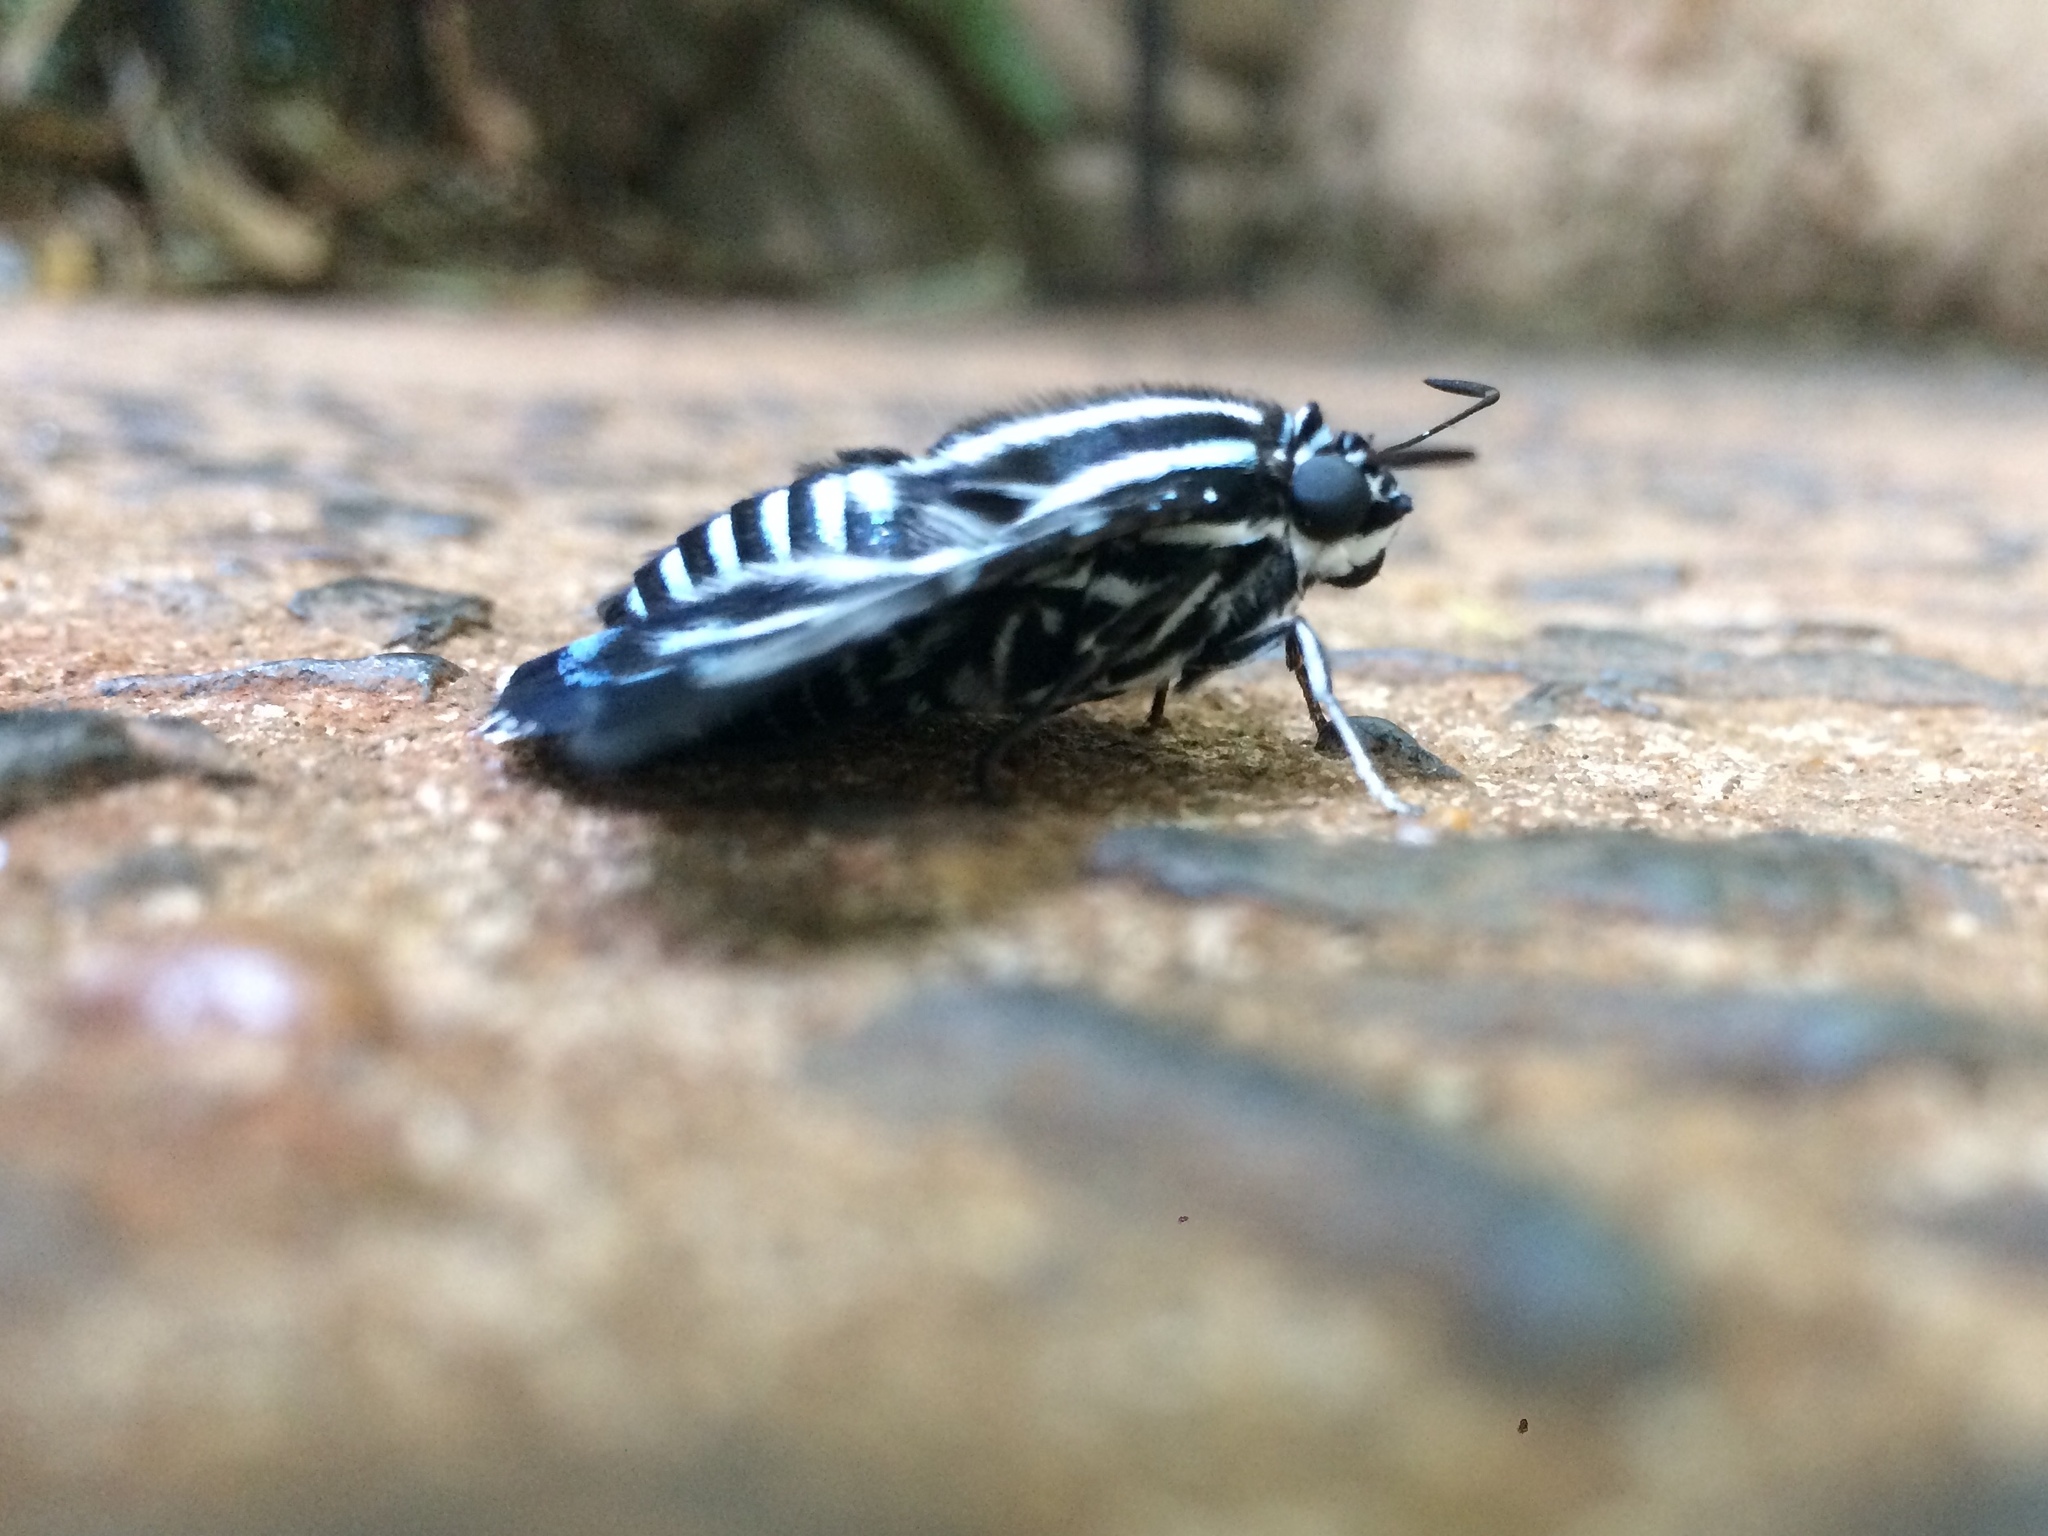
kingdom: Animalia
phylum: Arthropoda
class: Insecta
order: Lepidoptera
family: Hesperiidae
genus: Elbella
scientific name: Elbella azeta
